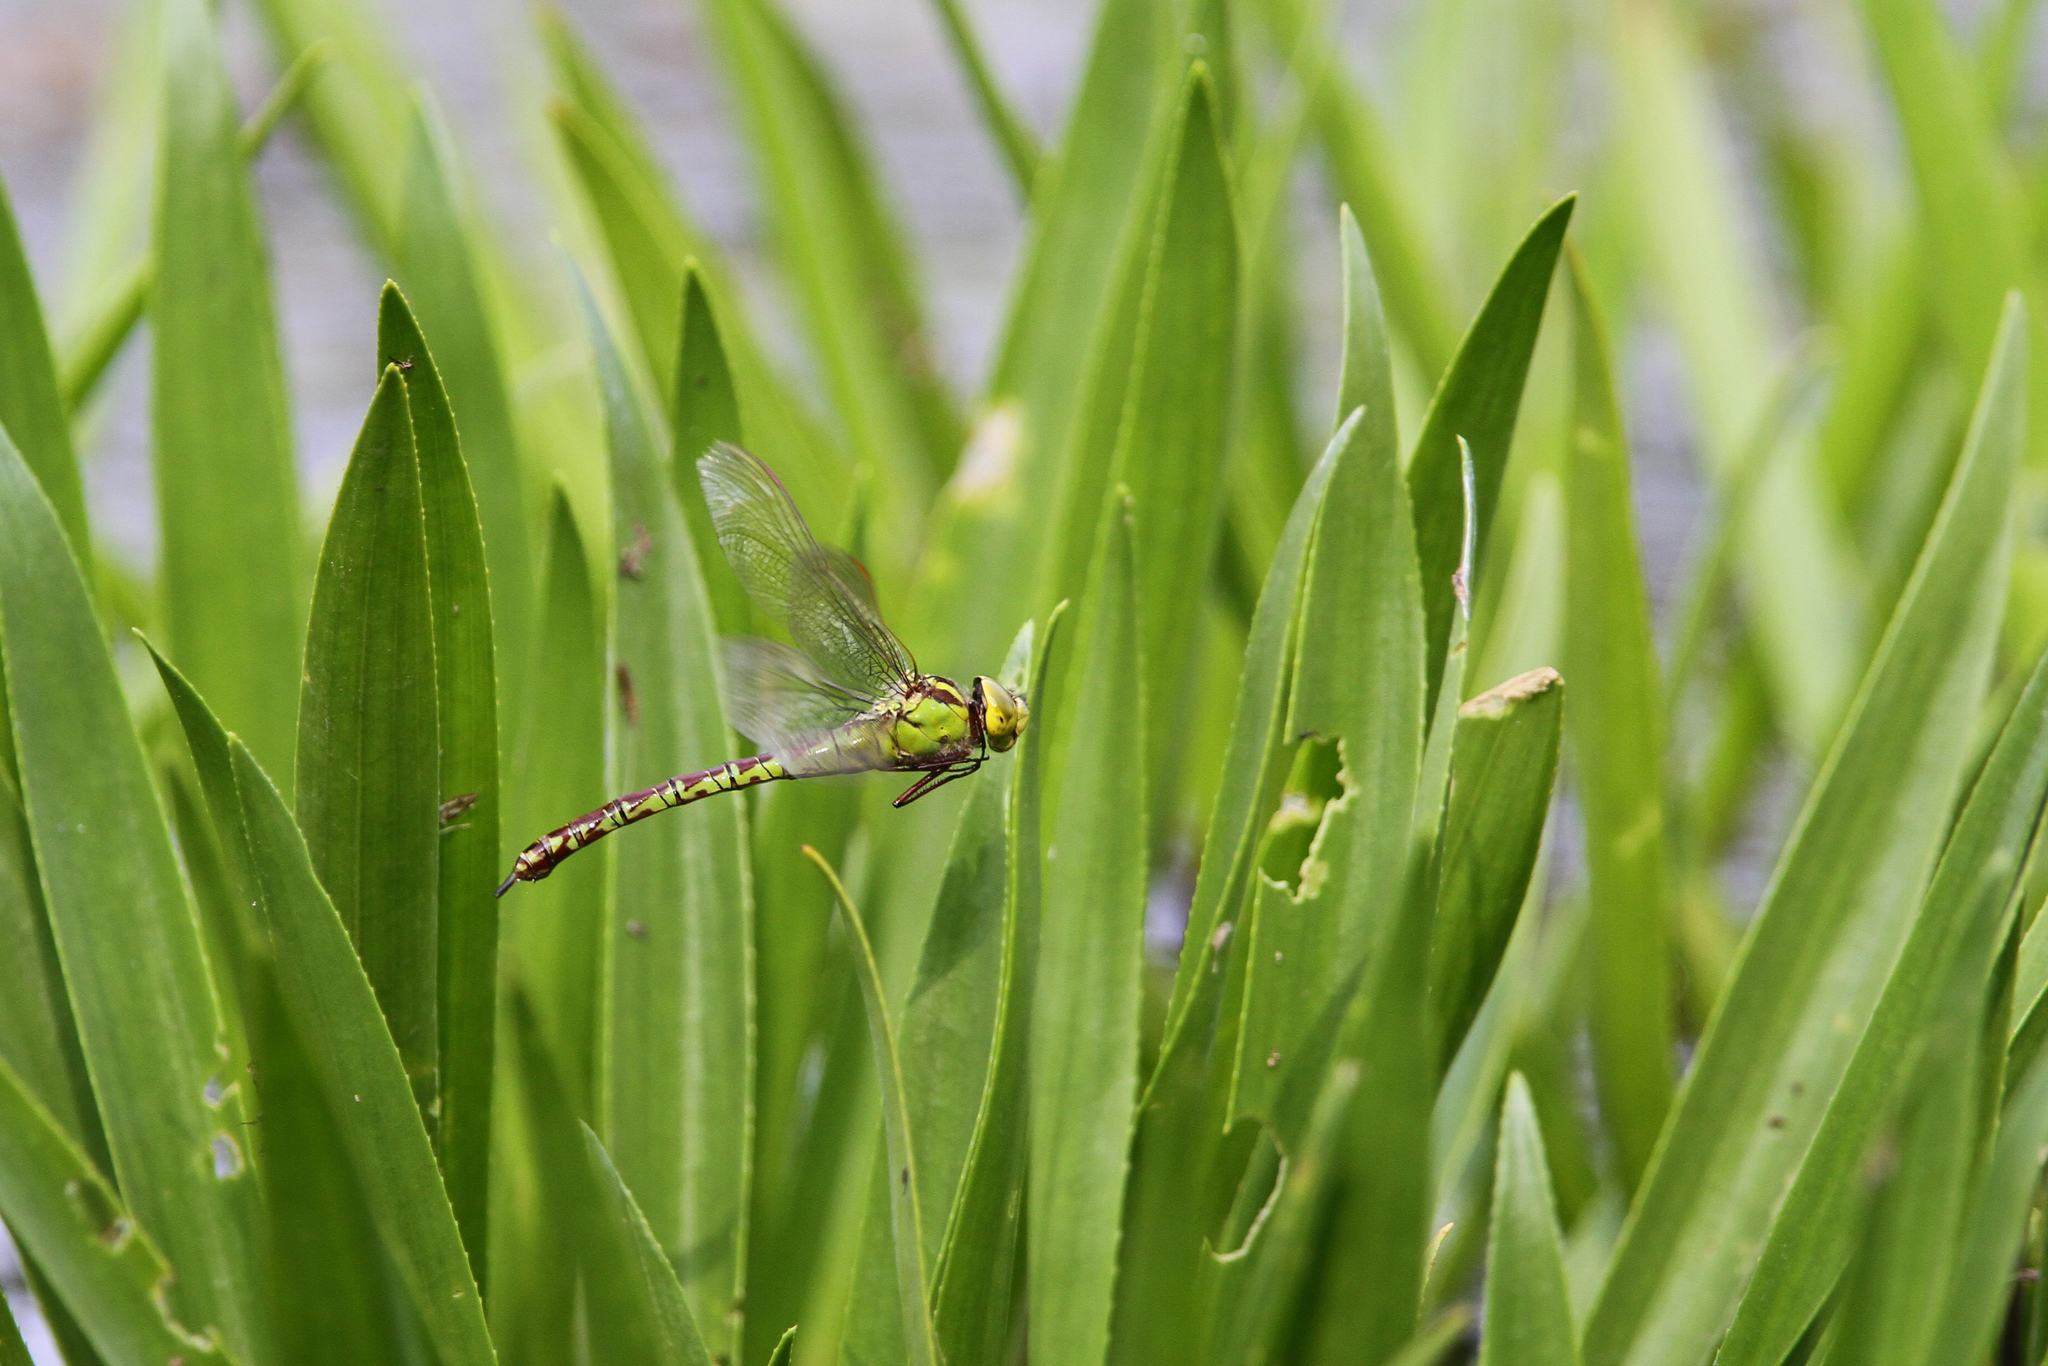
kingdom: Animalia
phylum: Arthropoda
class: Insecta
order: Odonata
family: Aeshnidae
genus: Aeshna
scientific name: Aeshna viridis
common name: Green hawker
